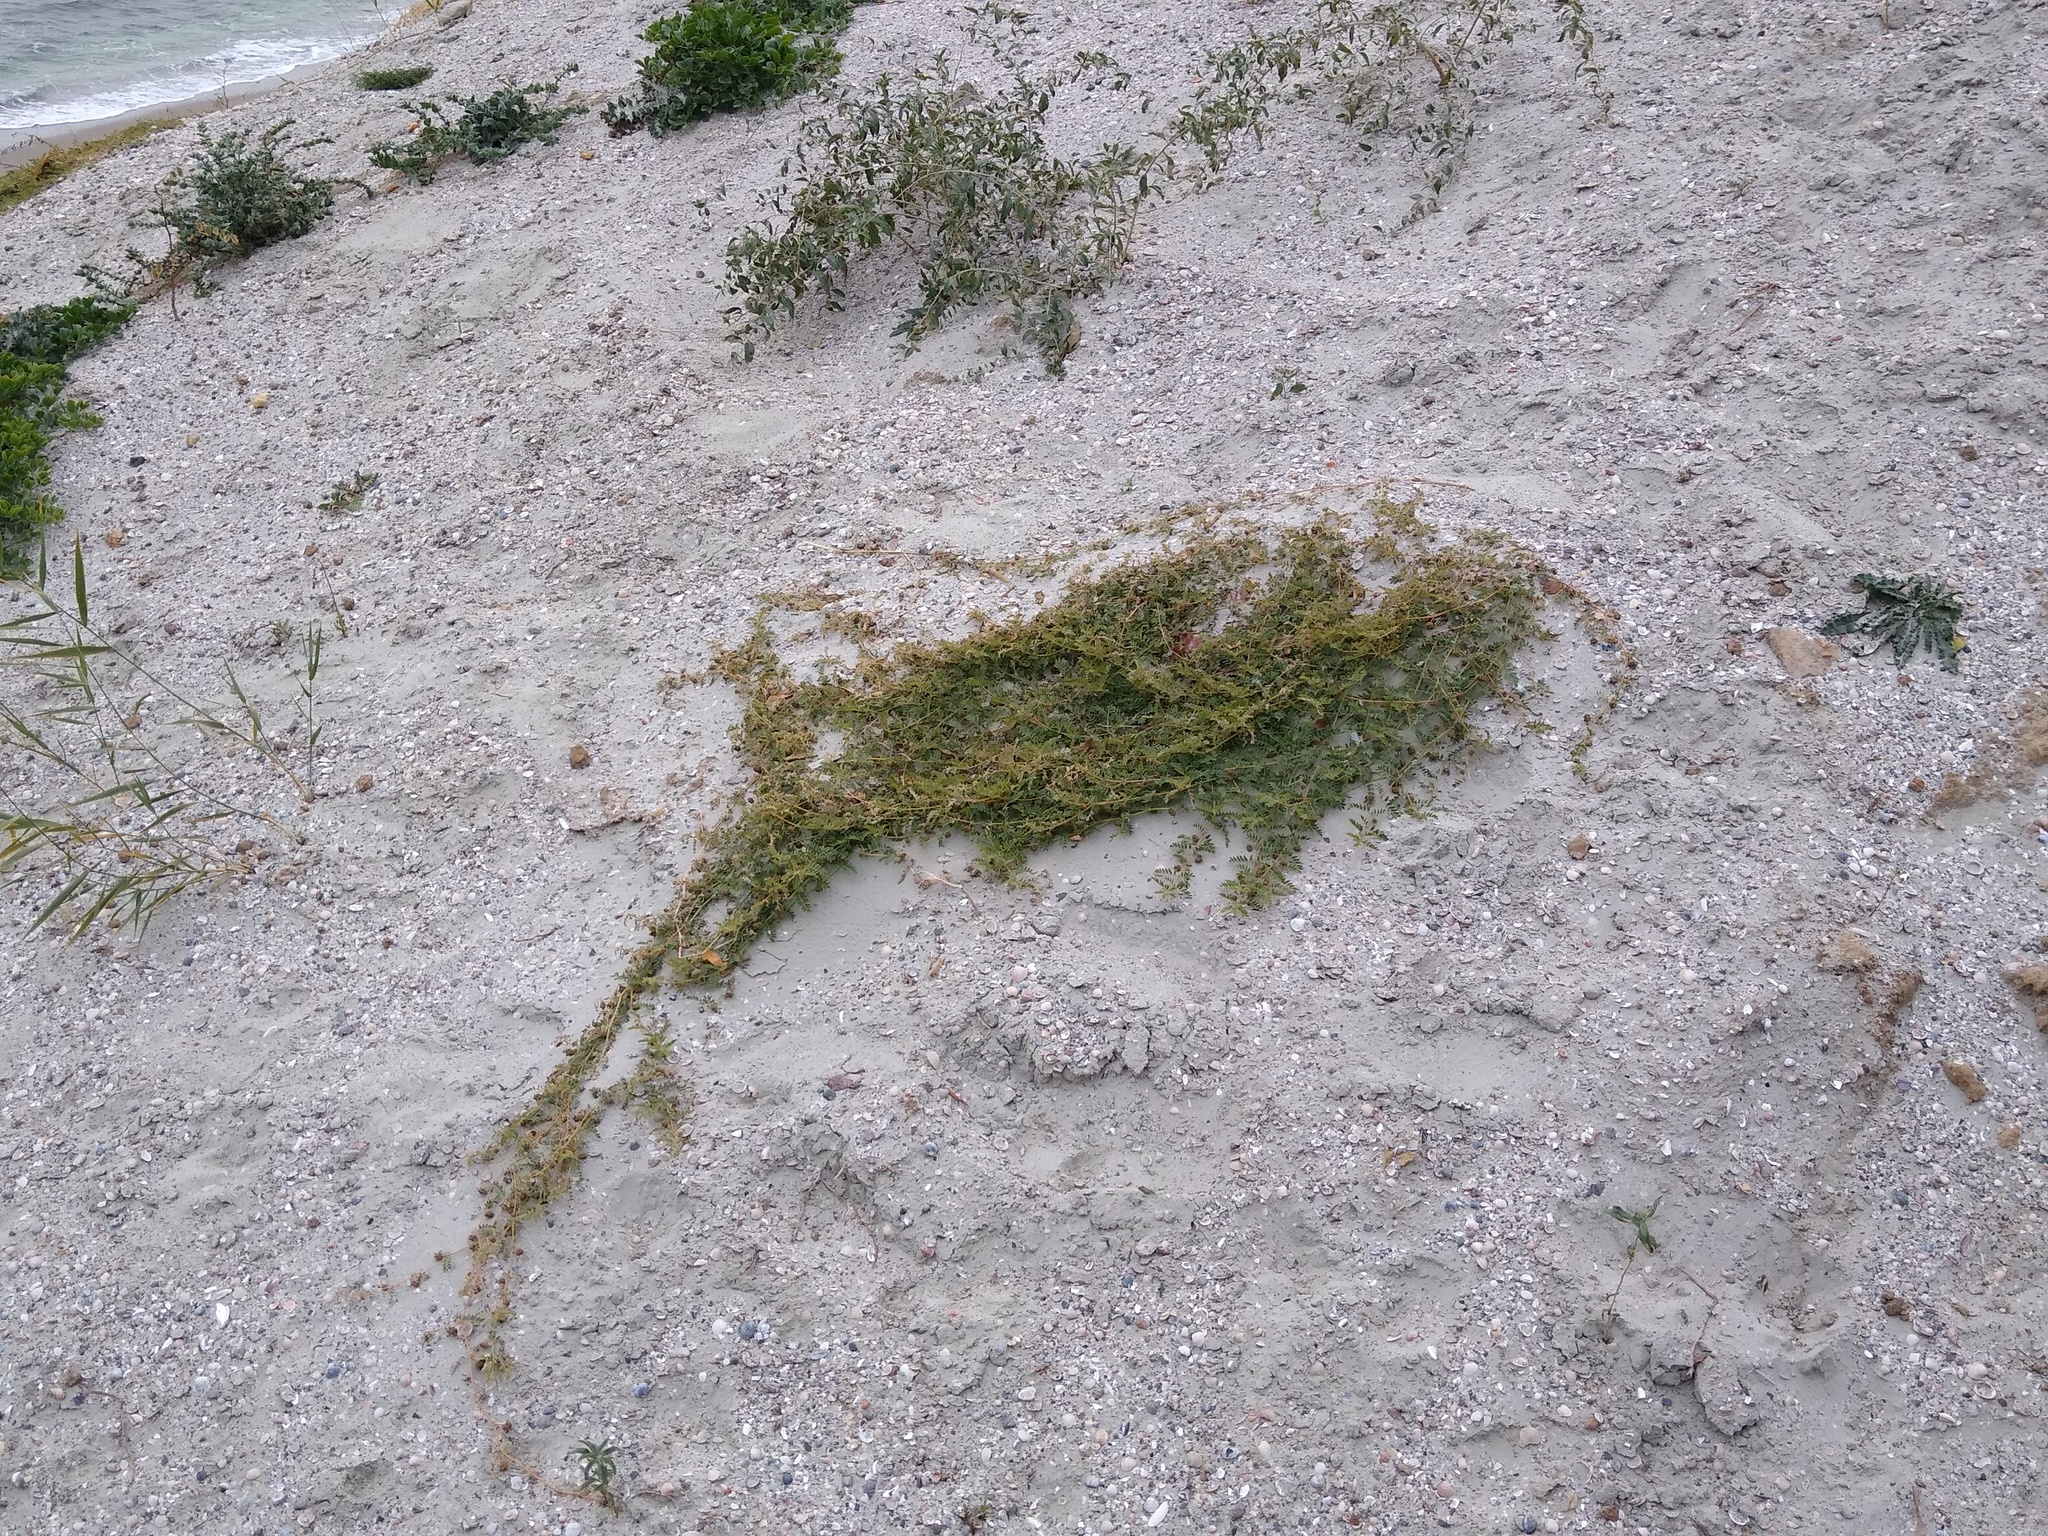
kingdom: Plantae
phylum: Tracheophyta
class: Magnoliopsida
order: Zygophyllales
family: Zygophyllaceae
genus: Tribulus
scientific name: Tribulus terrestris
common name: Puncturevine
